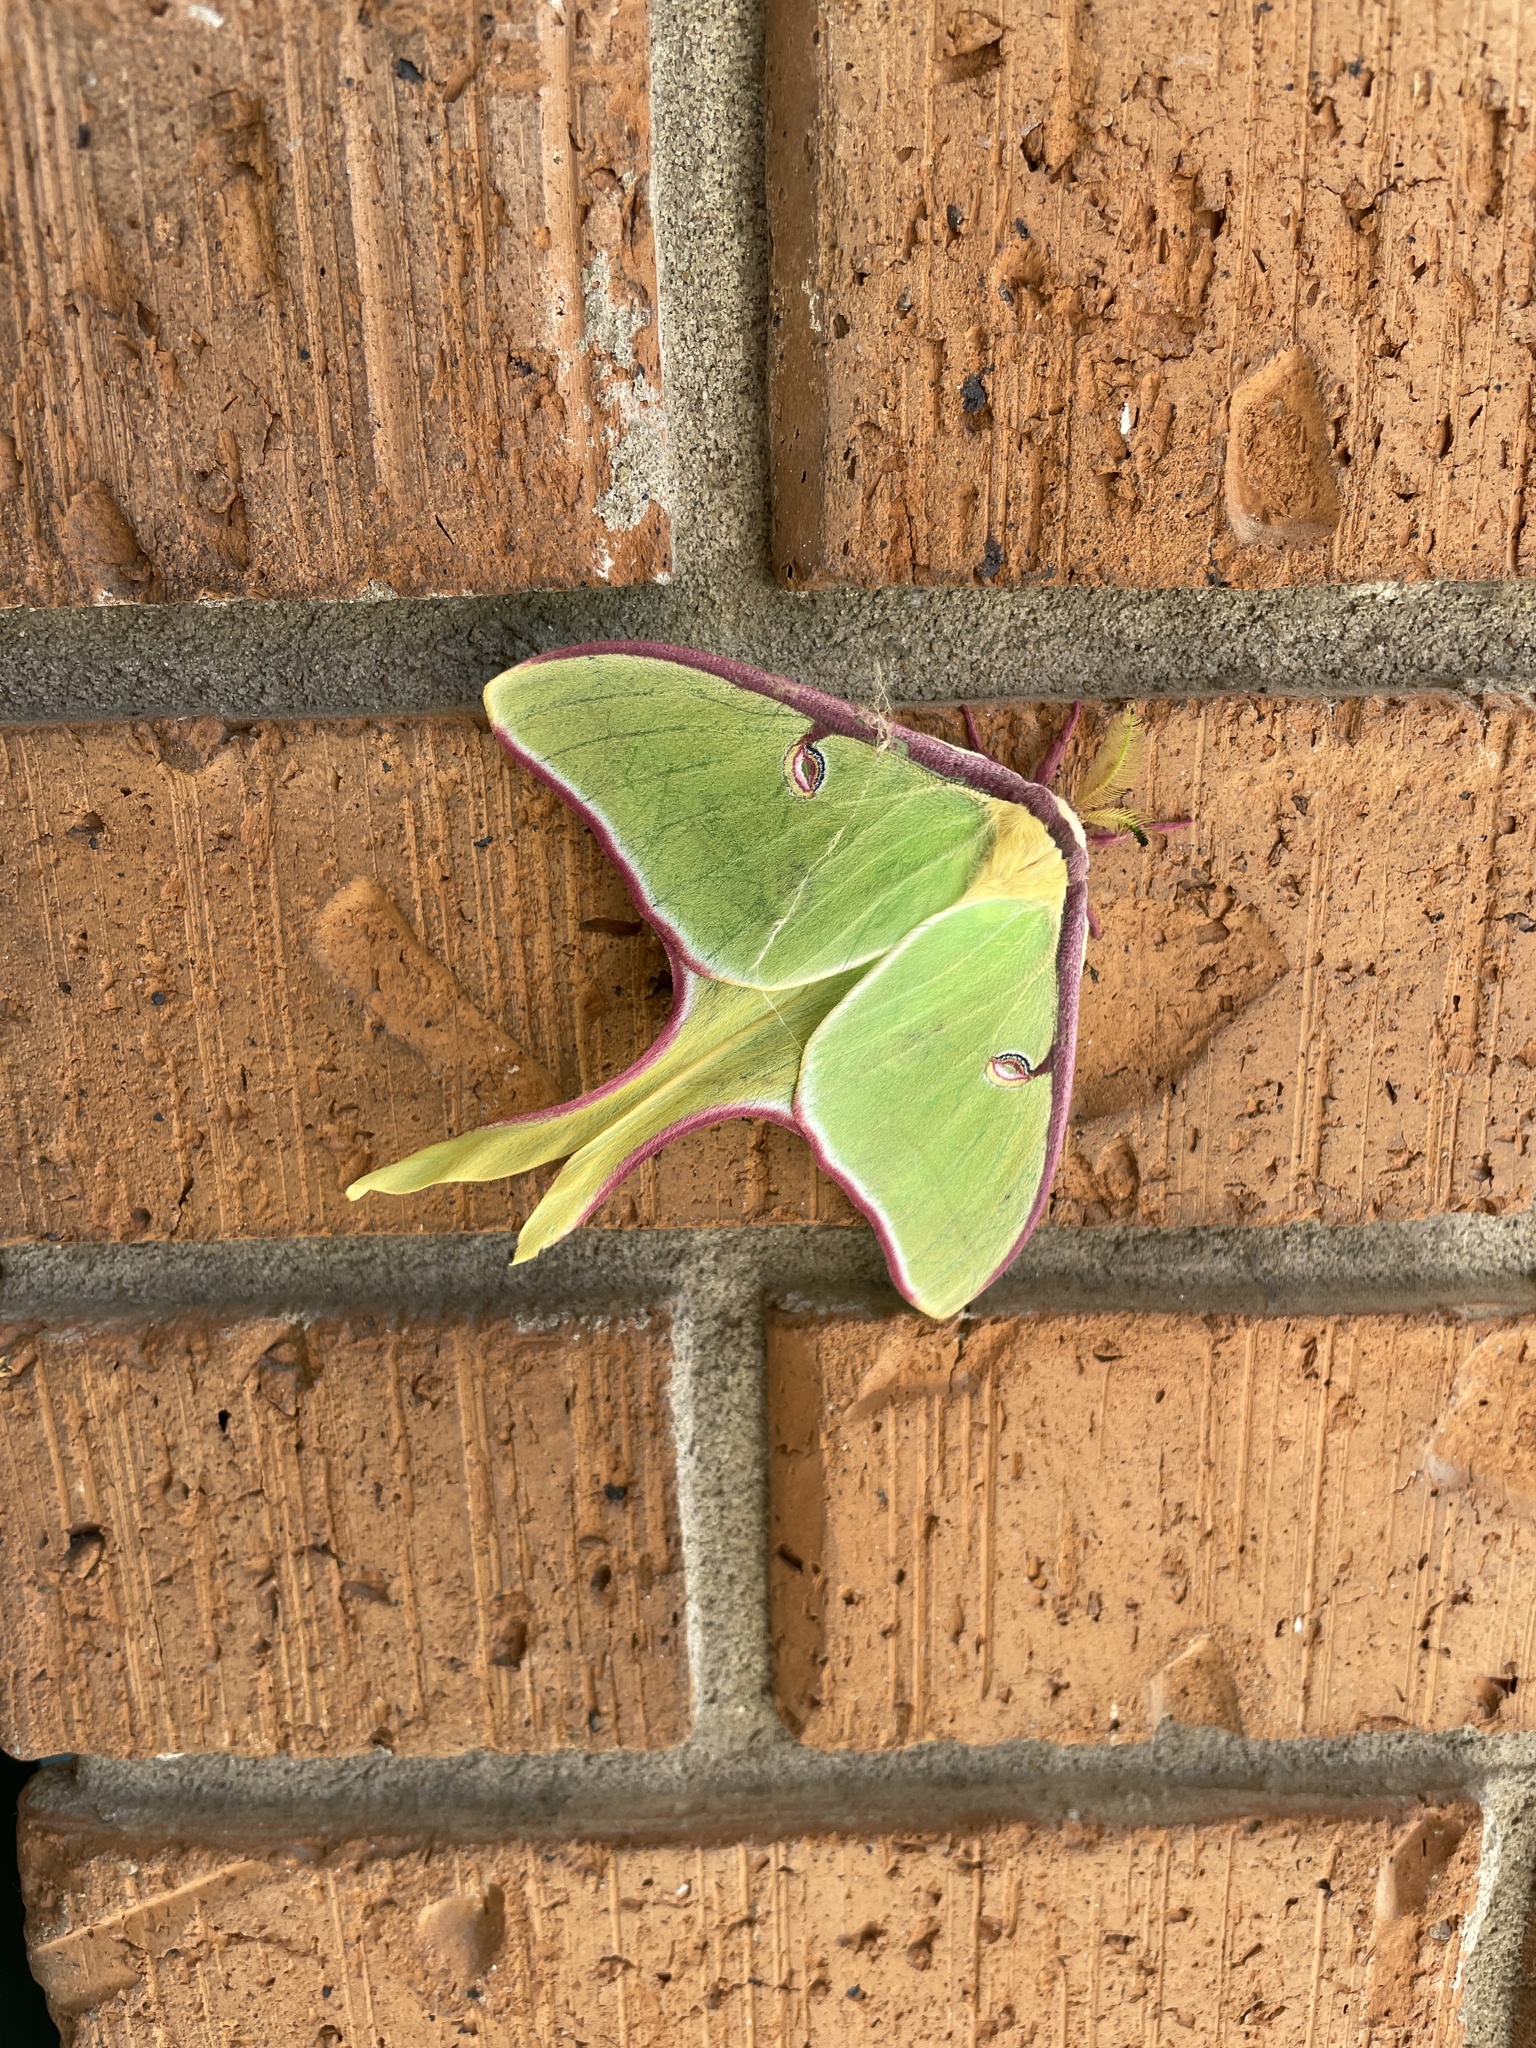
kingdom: Animalia
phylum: Arthropoda
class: Insecta
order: Lepidoptera
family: Saturniidae
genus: Actias
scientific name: Actias luna
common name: Luna moth
